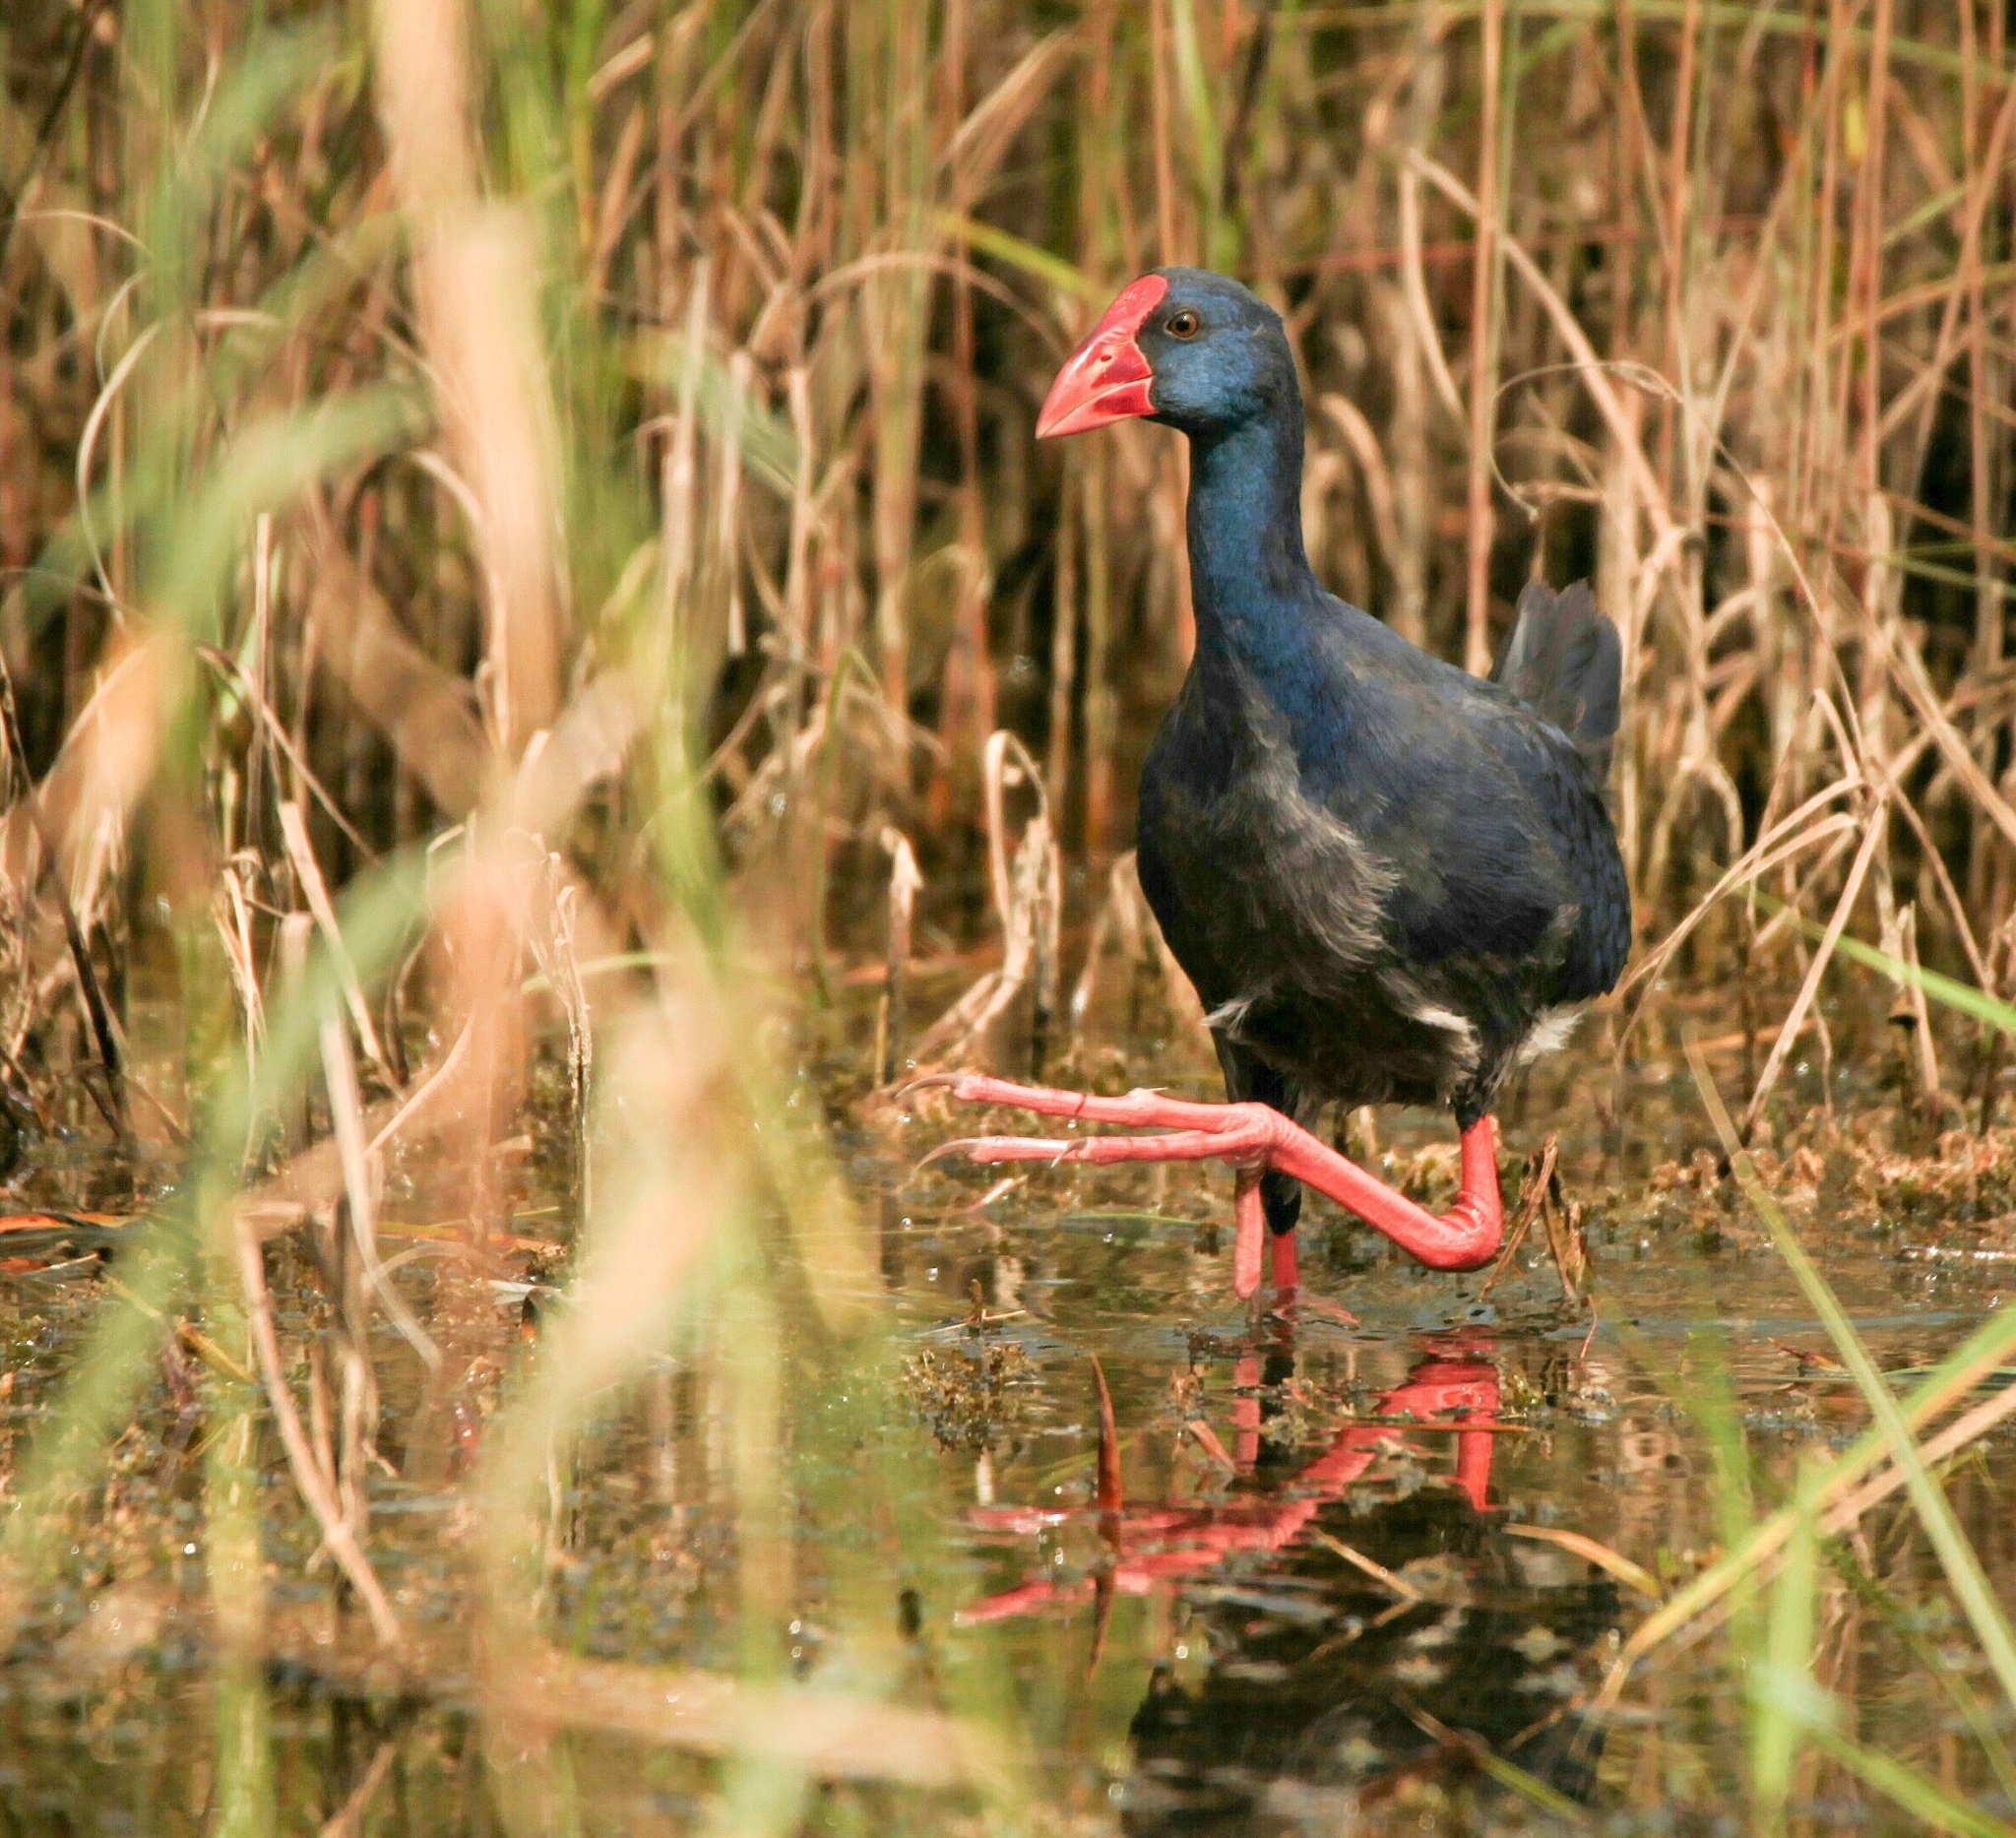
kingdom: Animalia
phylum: Chordata
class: Aves
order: Gruiformes
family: Rallidae
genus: Porphyrio
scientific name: Porphyrio porphyrio
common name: Purple swamphen
